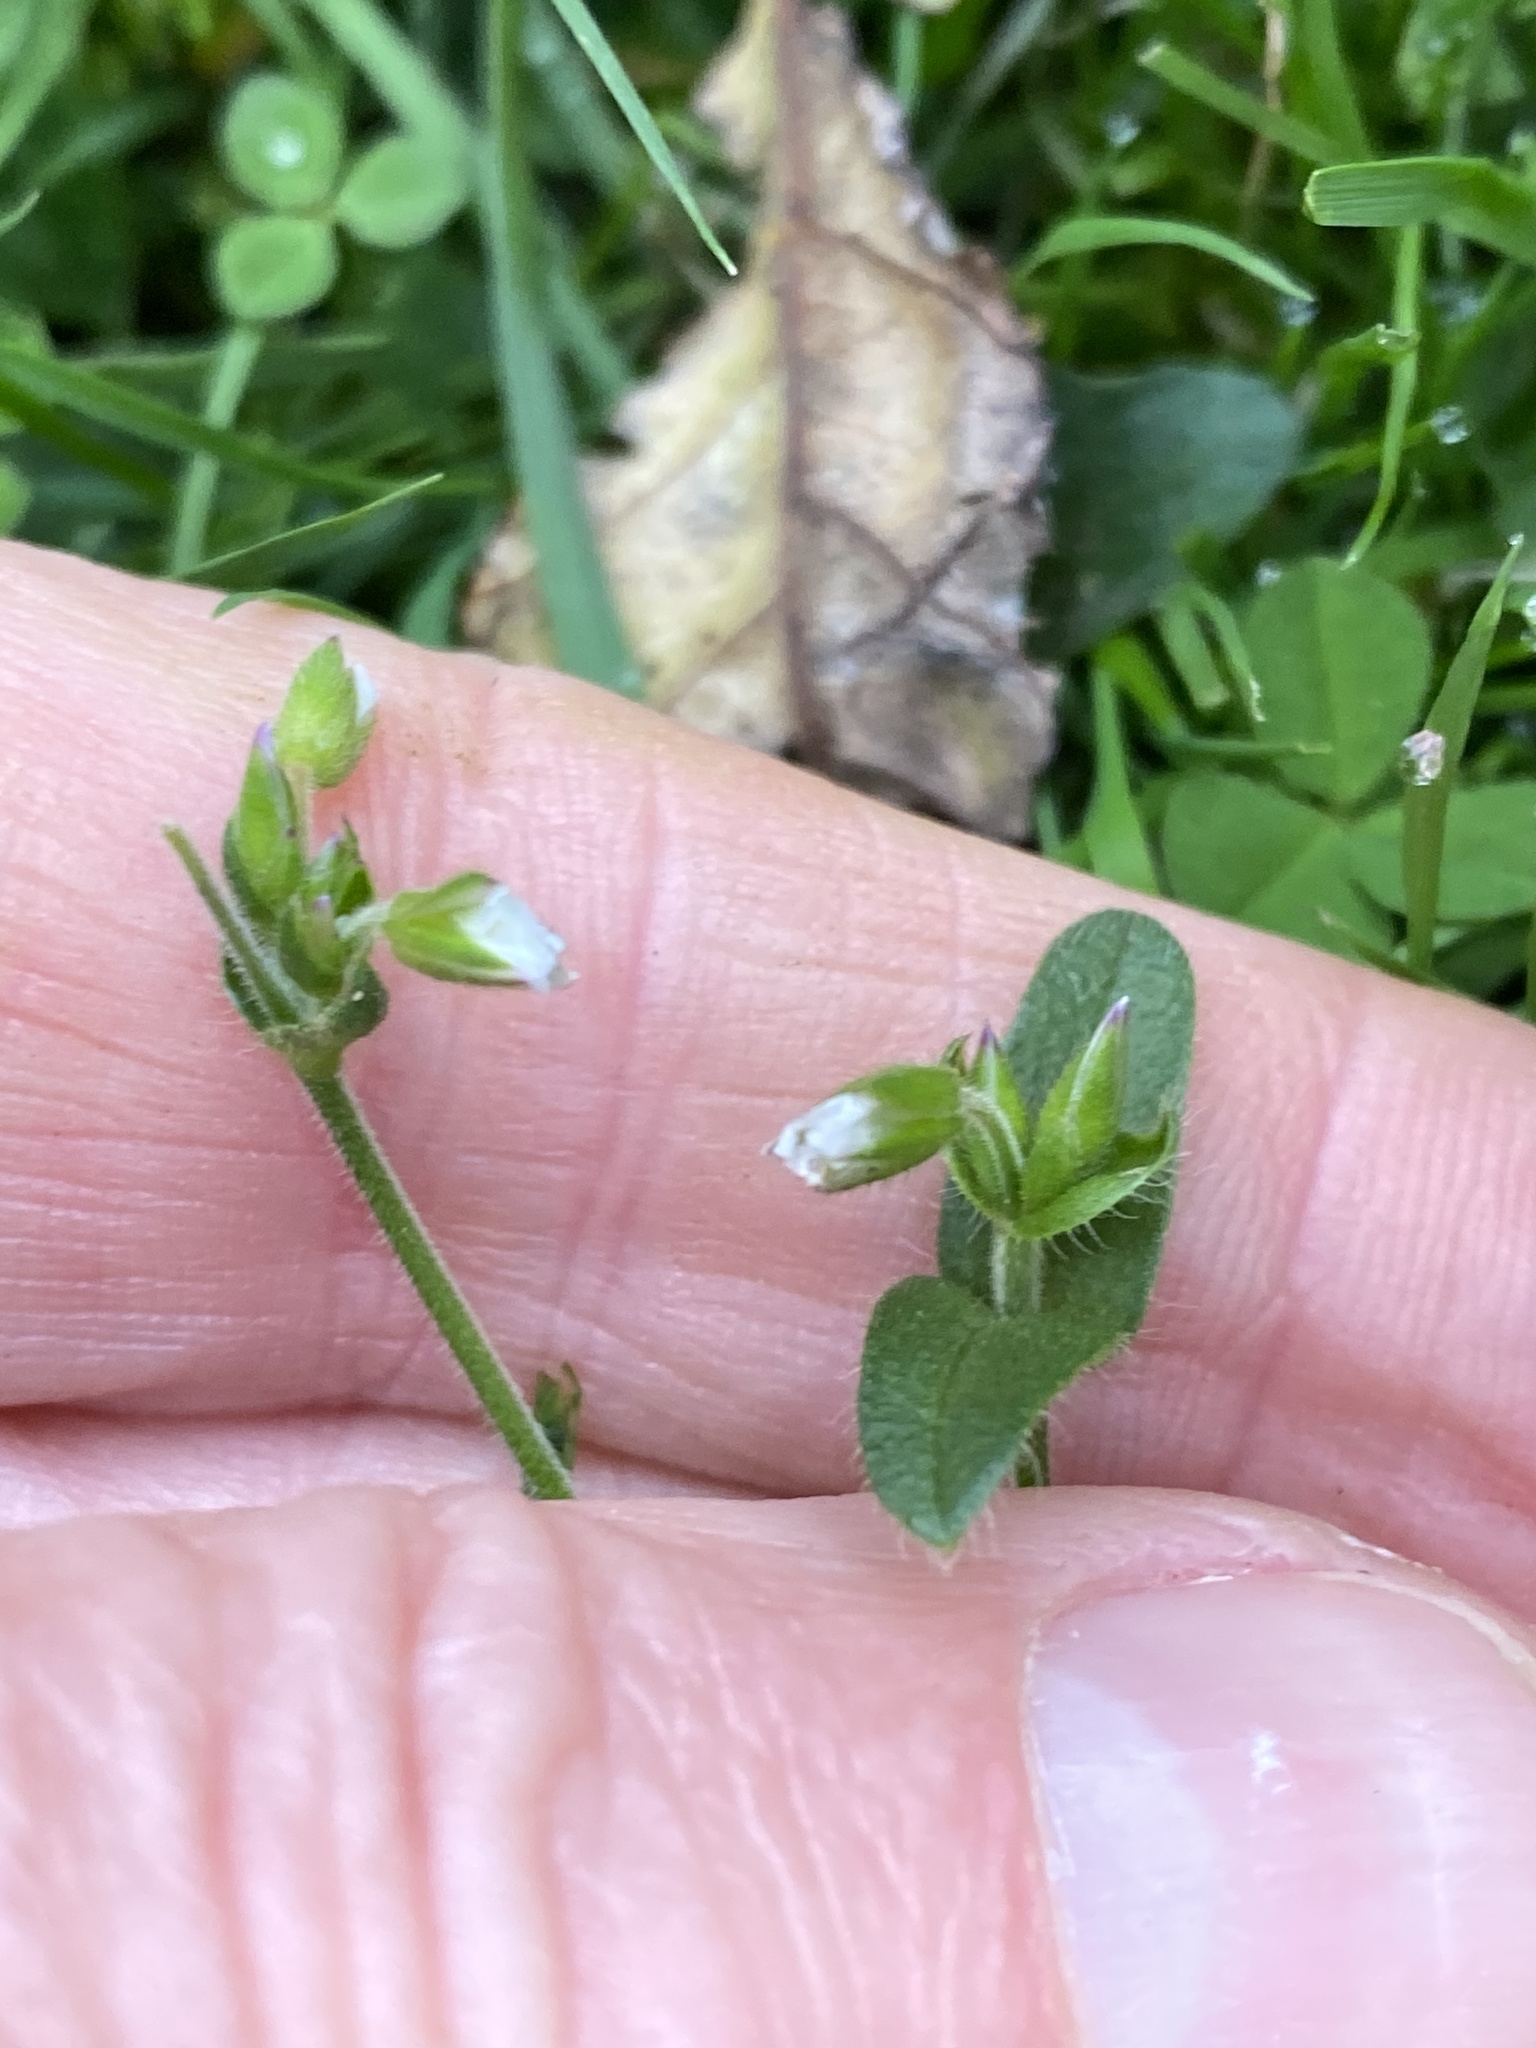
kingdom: Plantae
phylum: Tracheophyta
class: Magnoliopsida
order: Caryophyllales
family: Caryophyllaceae
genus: Cerastium
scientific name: Cerastium fontanum
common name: Common mouse-ear
